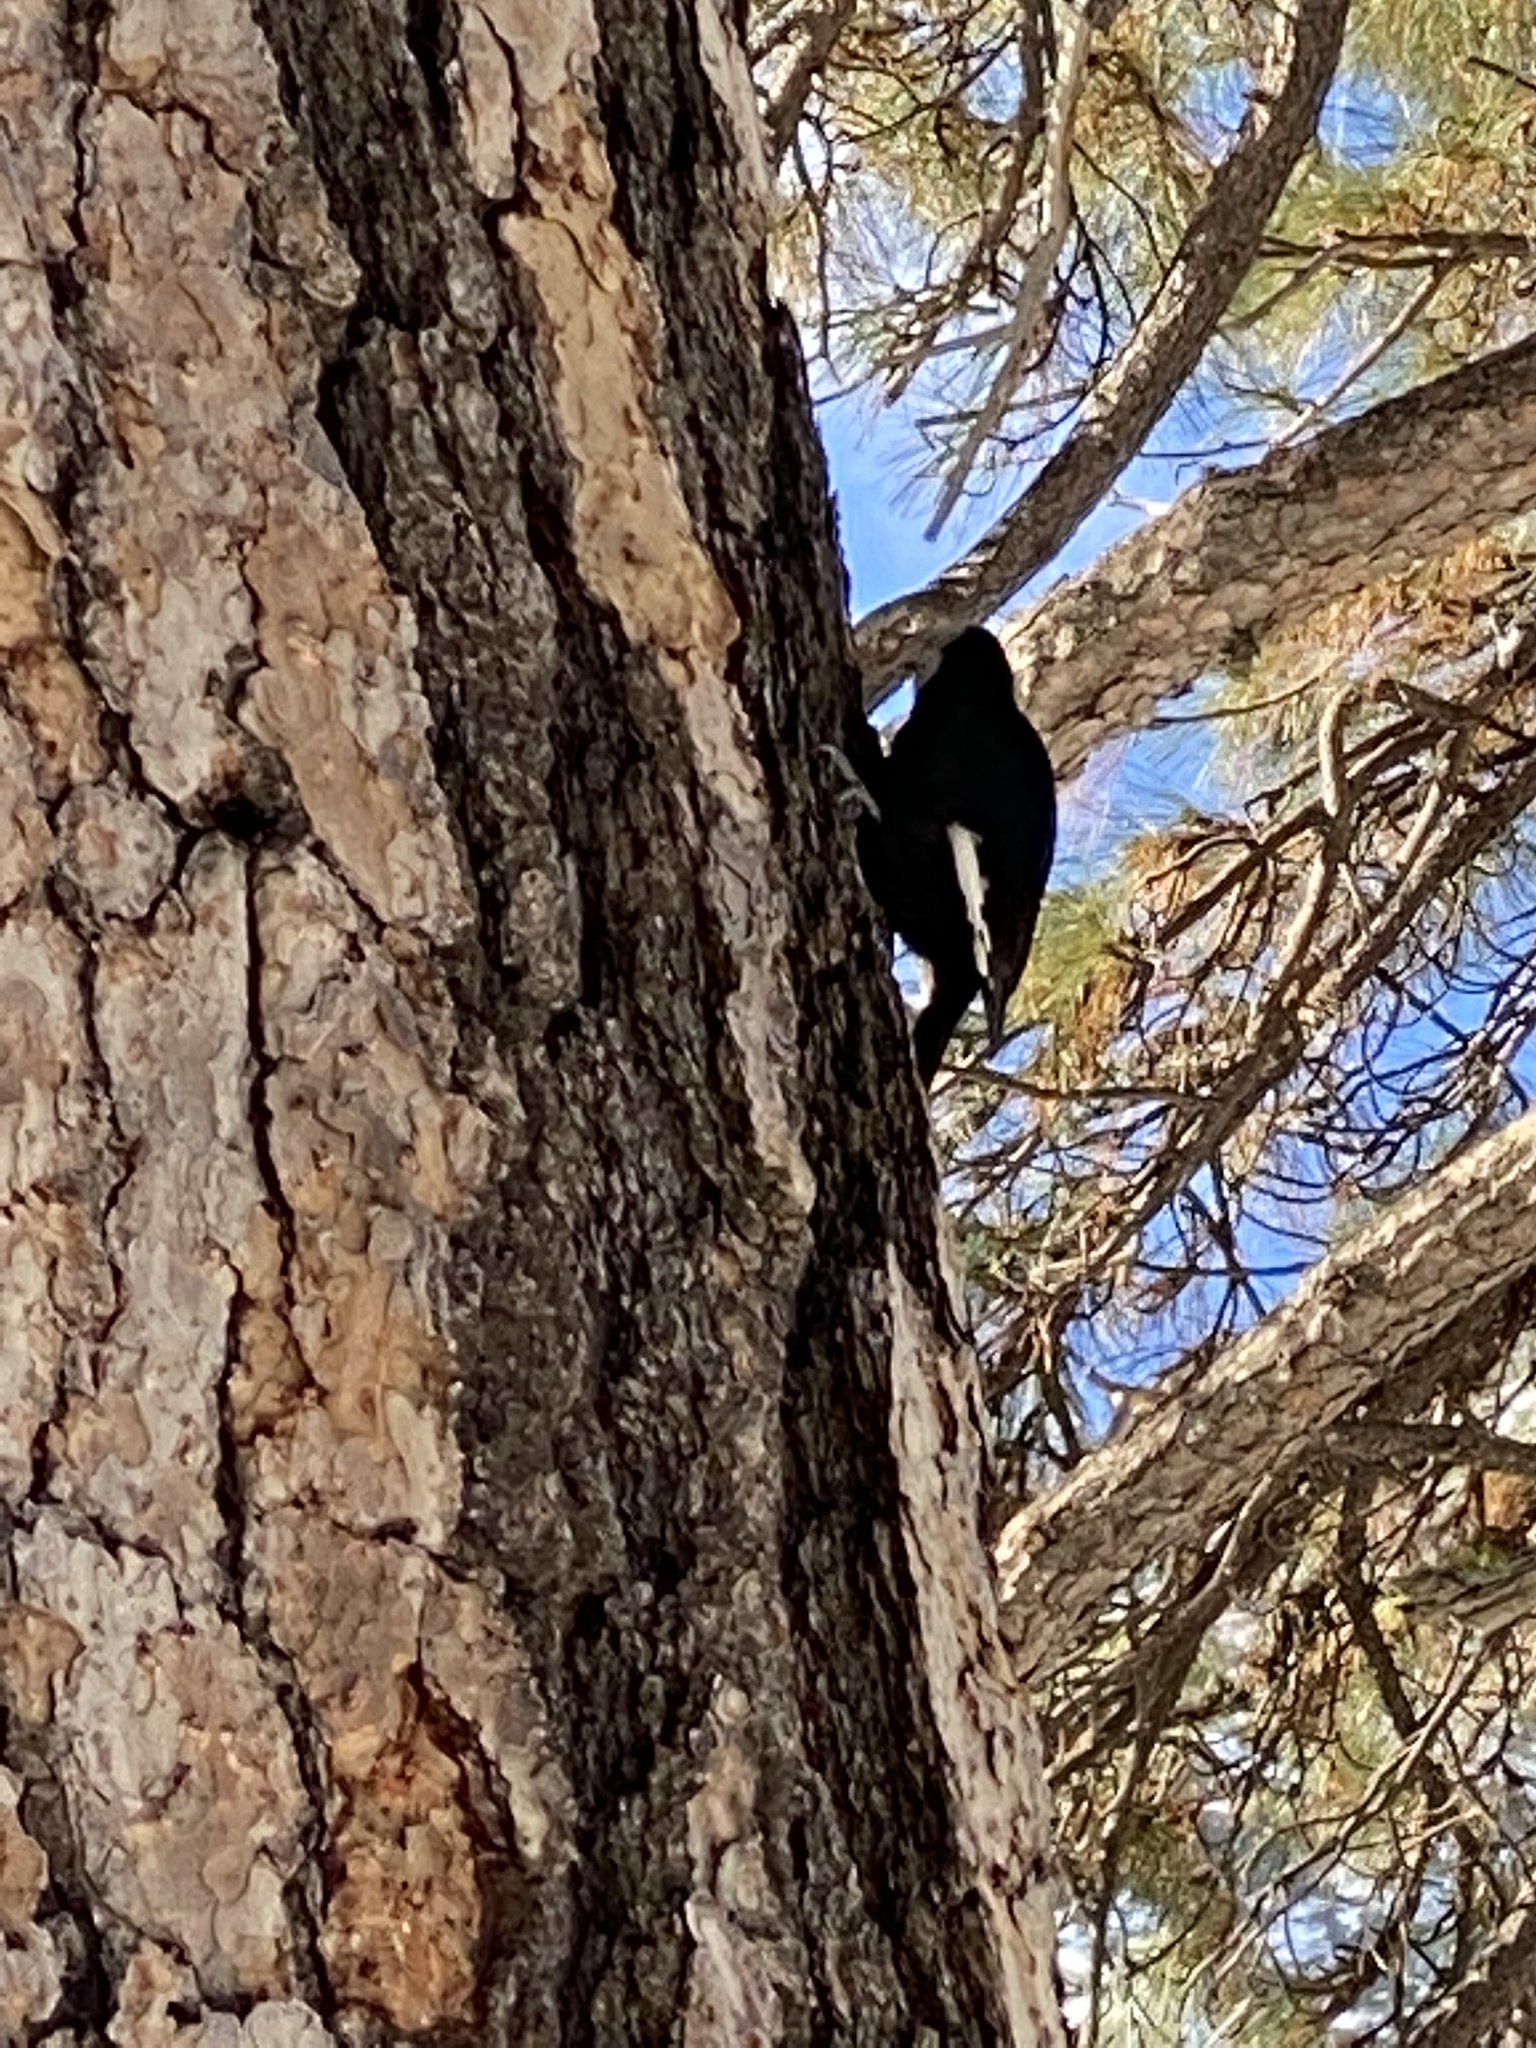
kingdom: Animalia
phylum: Chordata
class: Aves
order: Piciformes
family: Picidae
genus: Leuconotopicus
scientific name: Leuconotopicus albolarvatus
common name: White-headed woodpecker
